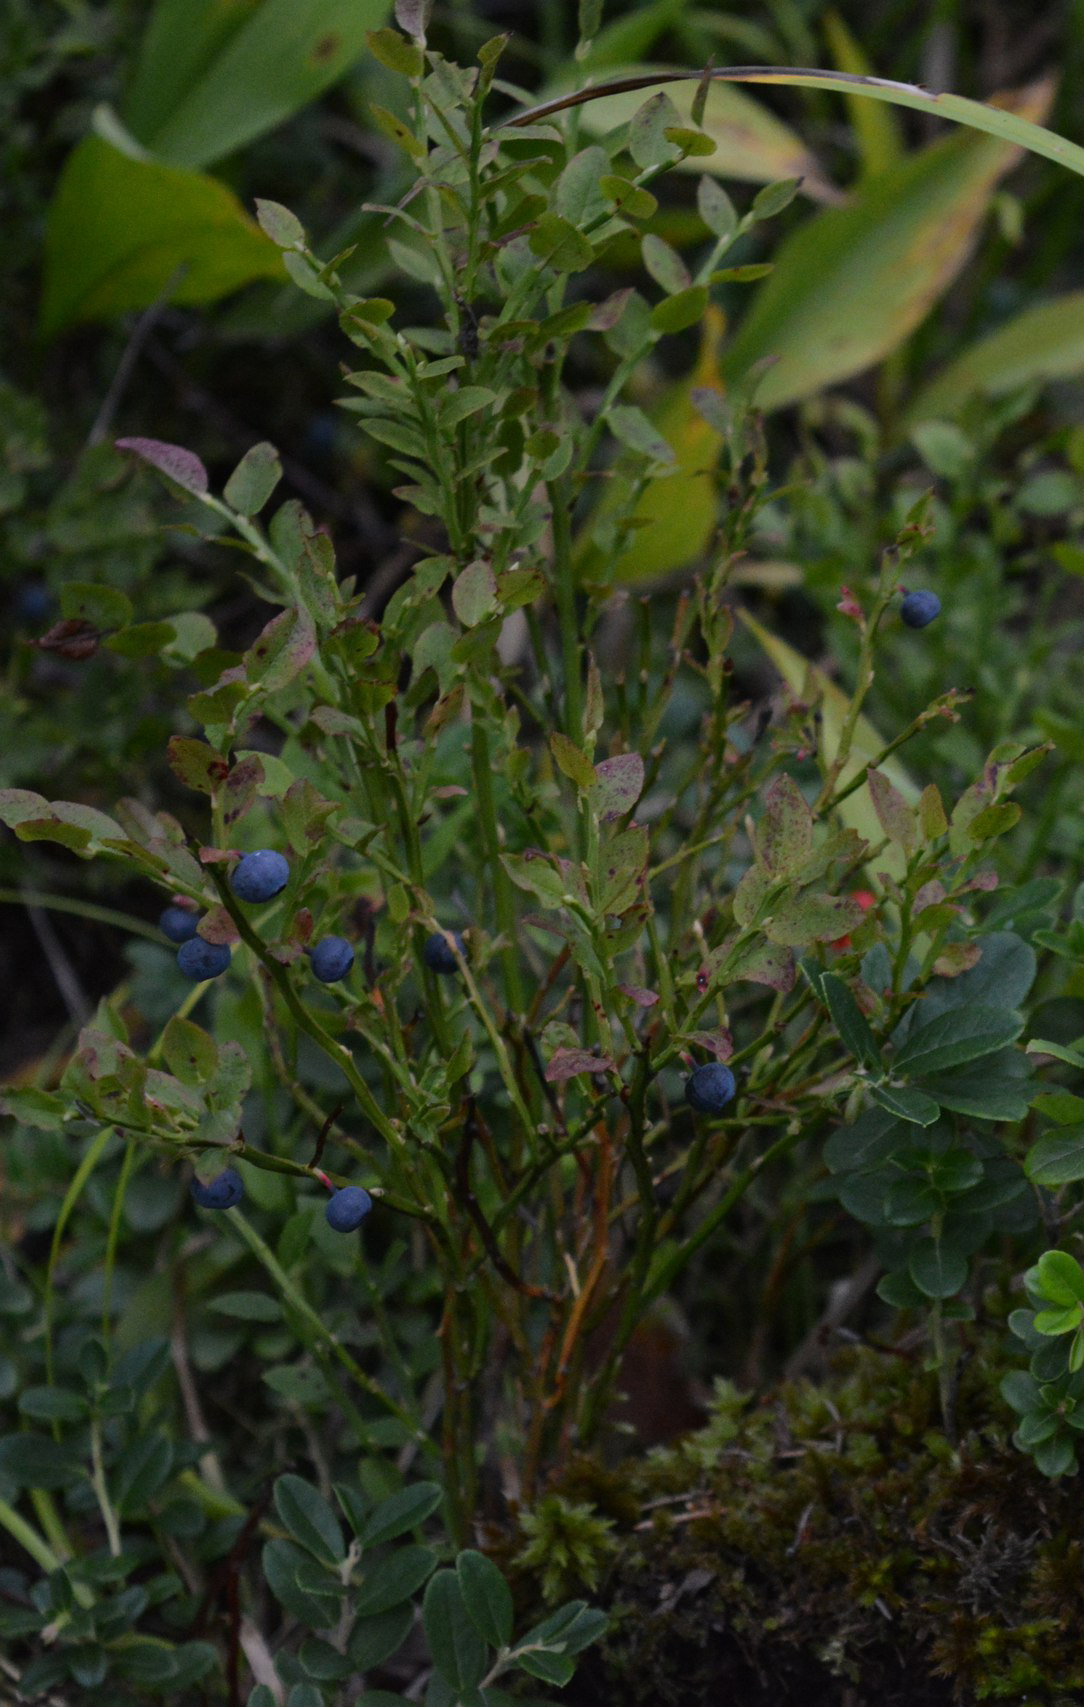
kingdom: Plantae
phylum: Tracheophyta
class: Magnoliopsida
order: Ericales
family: Ericaceae
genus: Vaccinium
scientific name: Vaccinium myrtillus
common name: Bilberry
